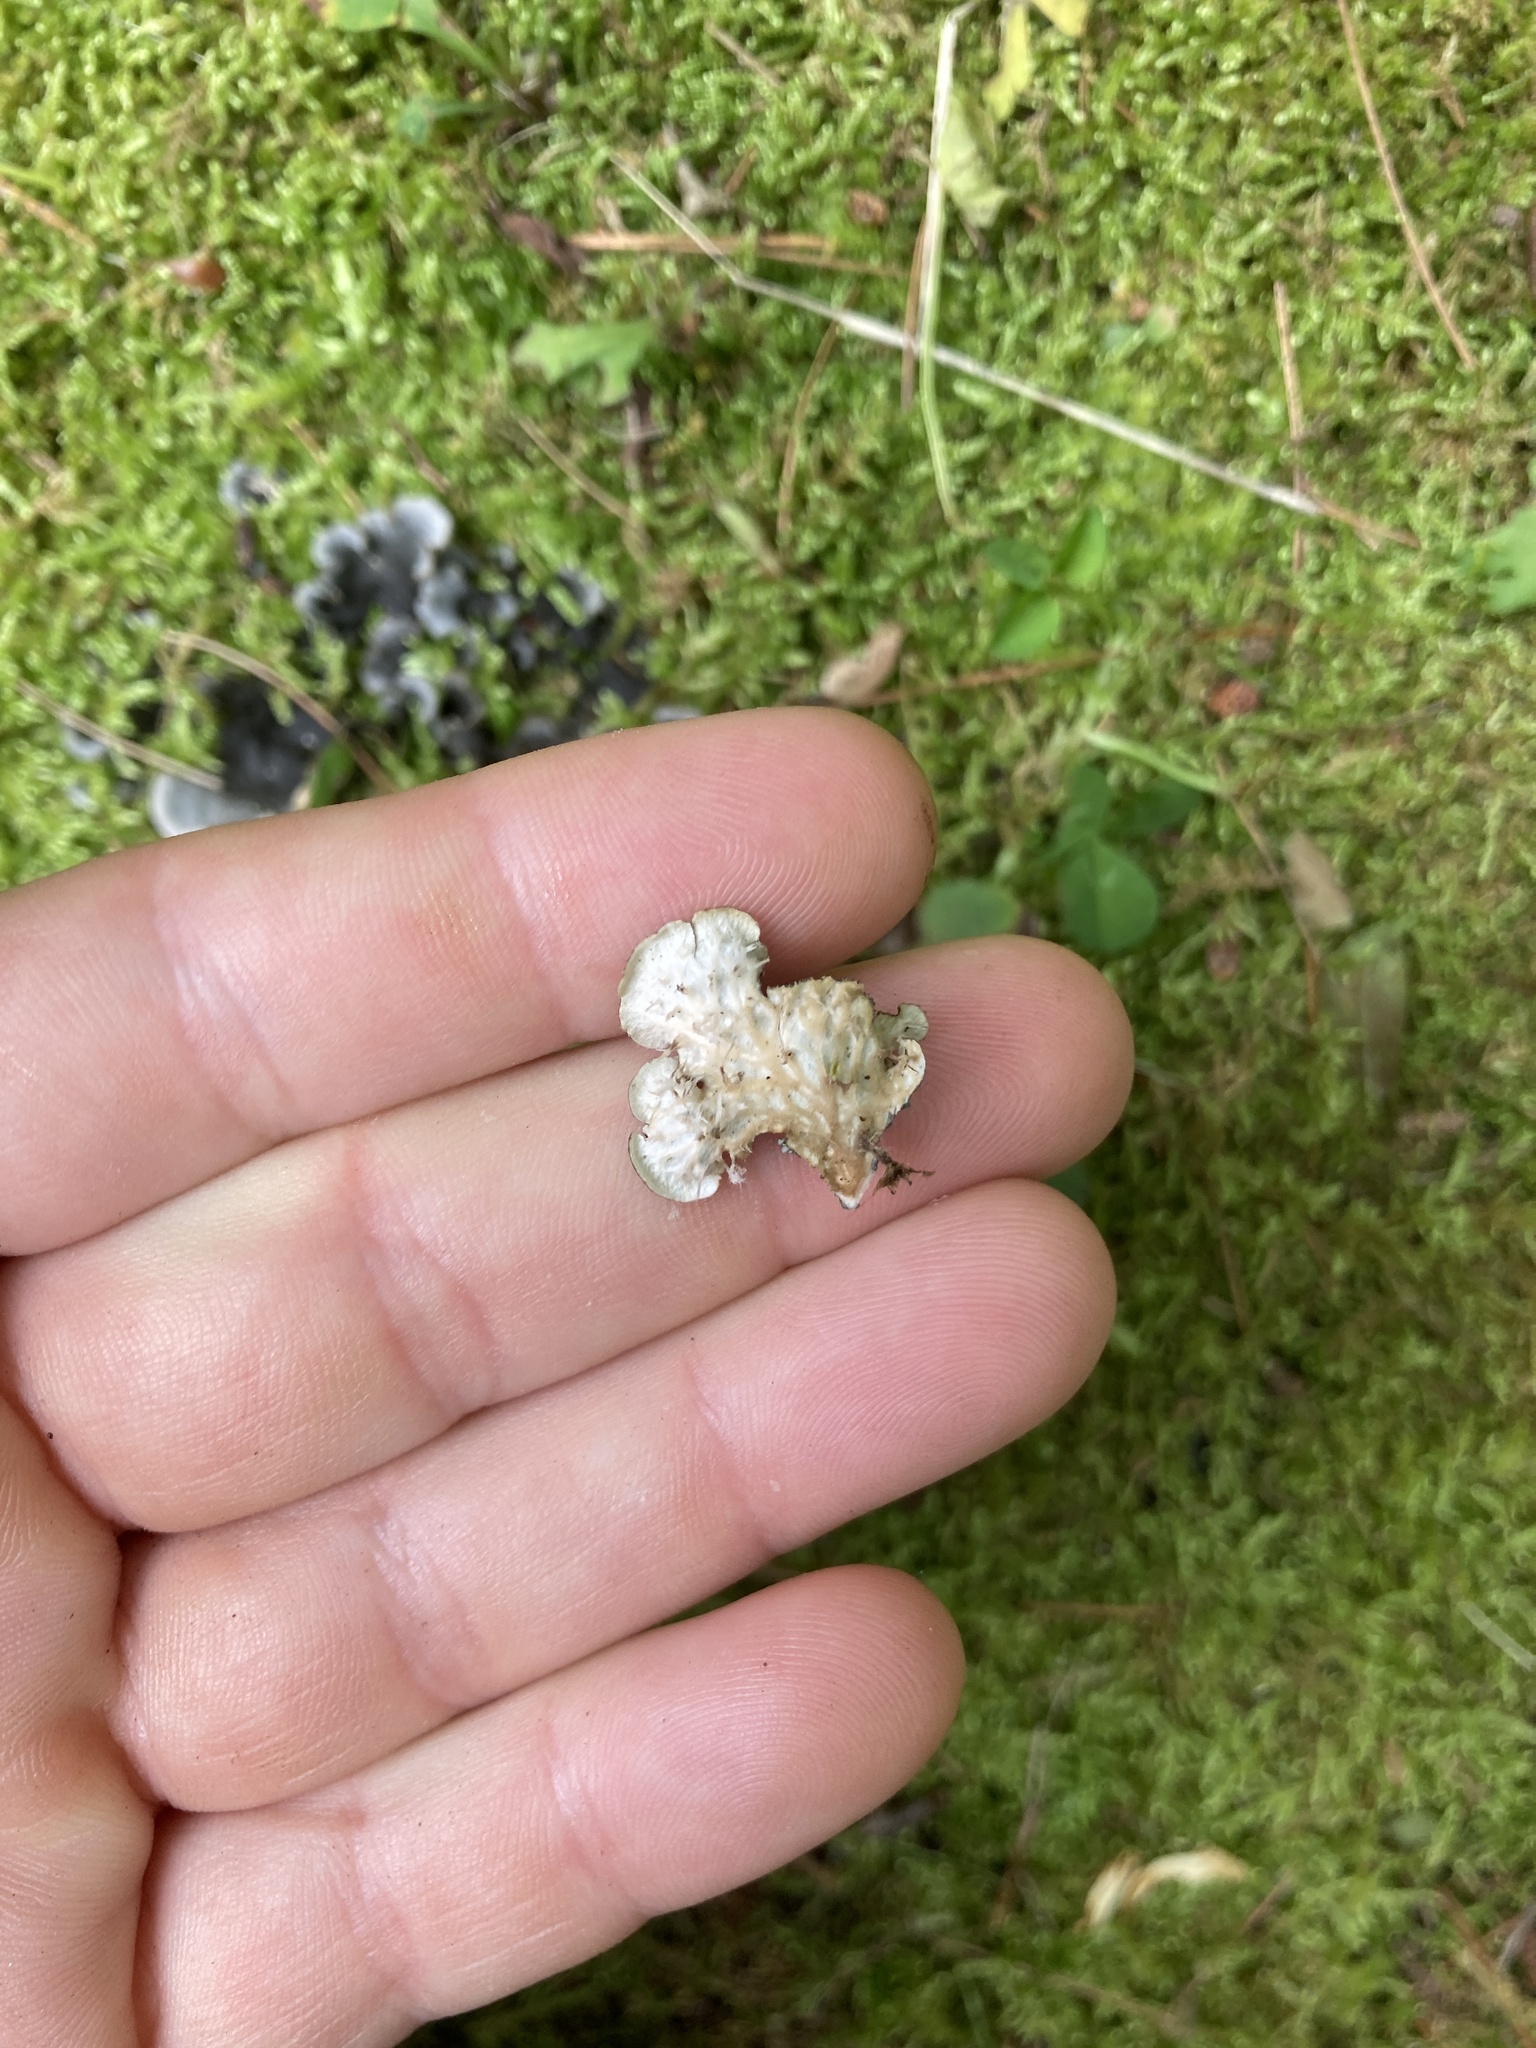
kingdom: Fungi
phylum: Ascomycota
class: Lecanoromycetes
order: Peltigerales
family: Peltigeraceae
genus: Peltigera
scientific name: Peltigera praetextata
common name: Scaly dog-lichen
